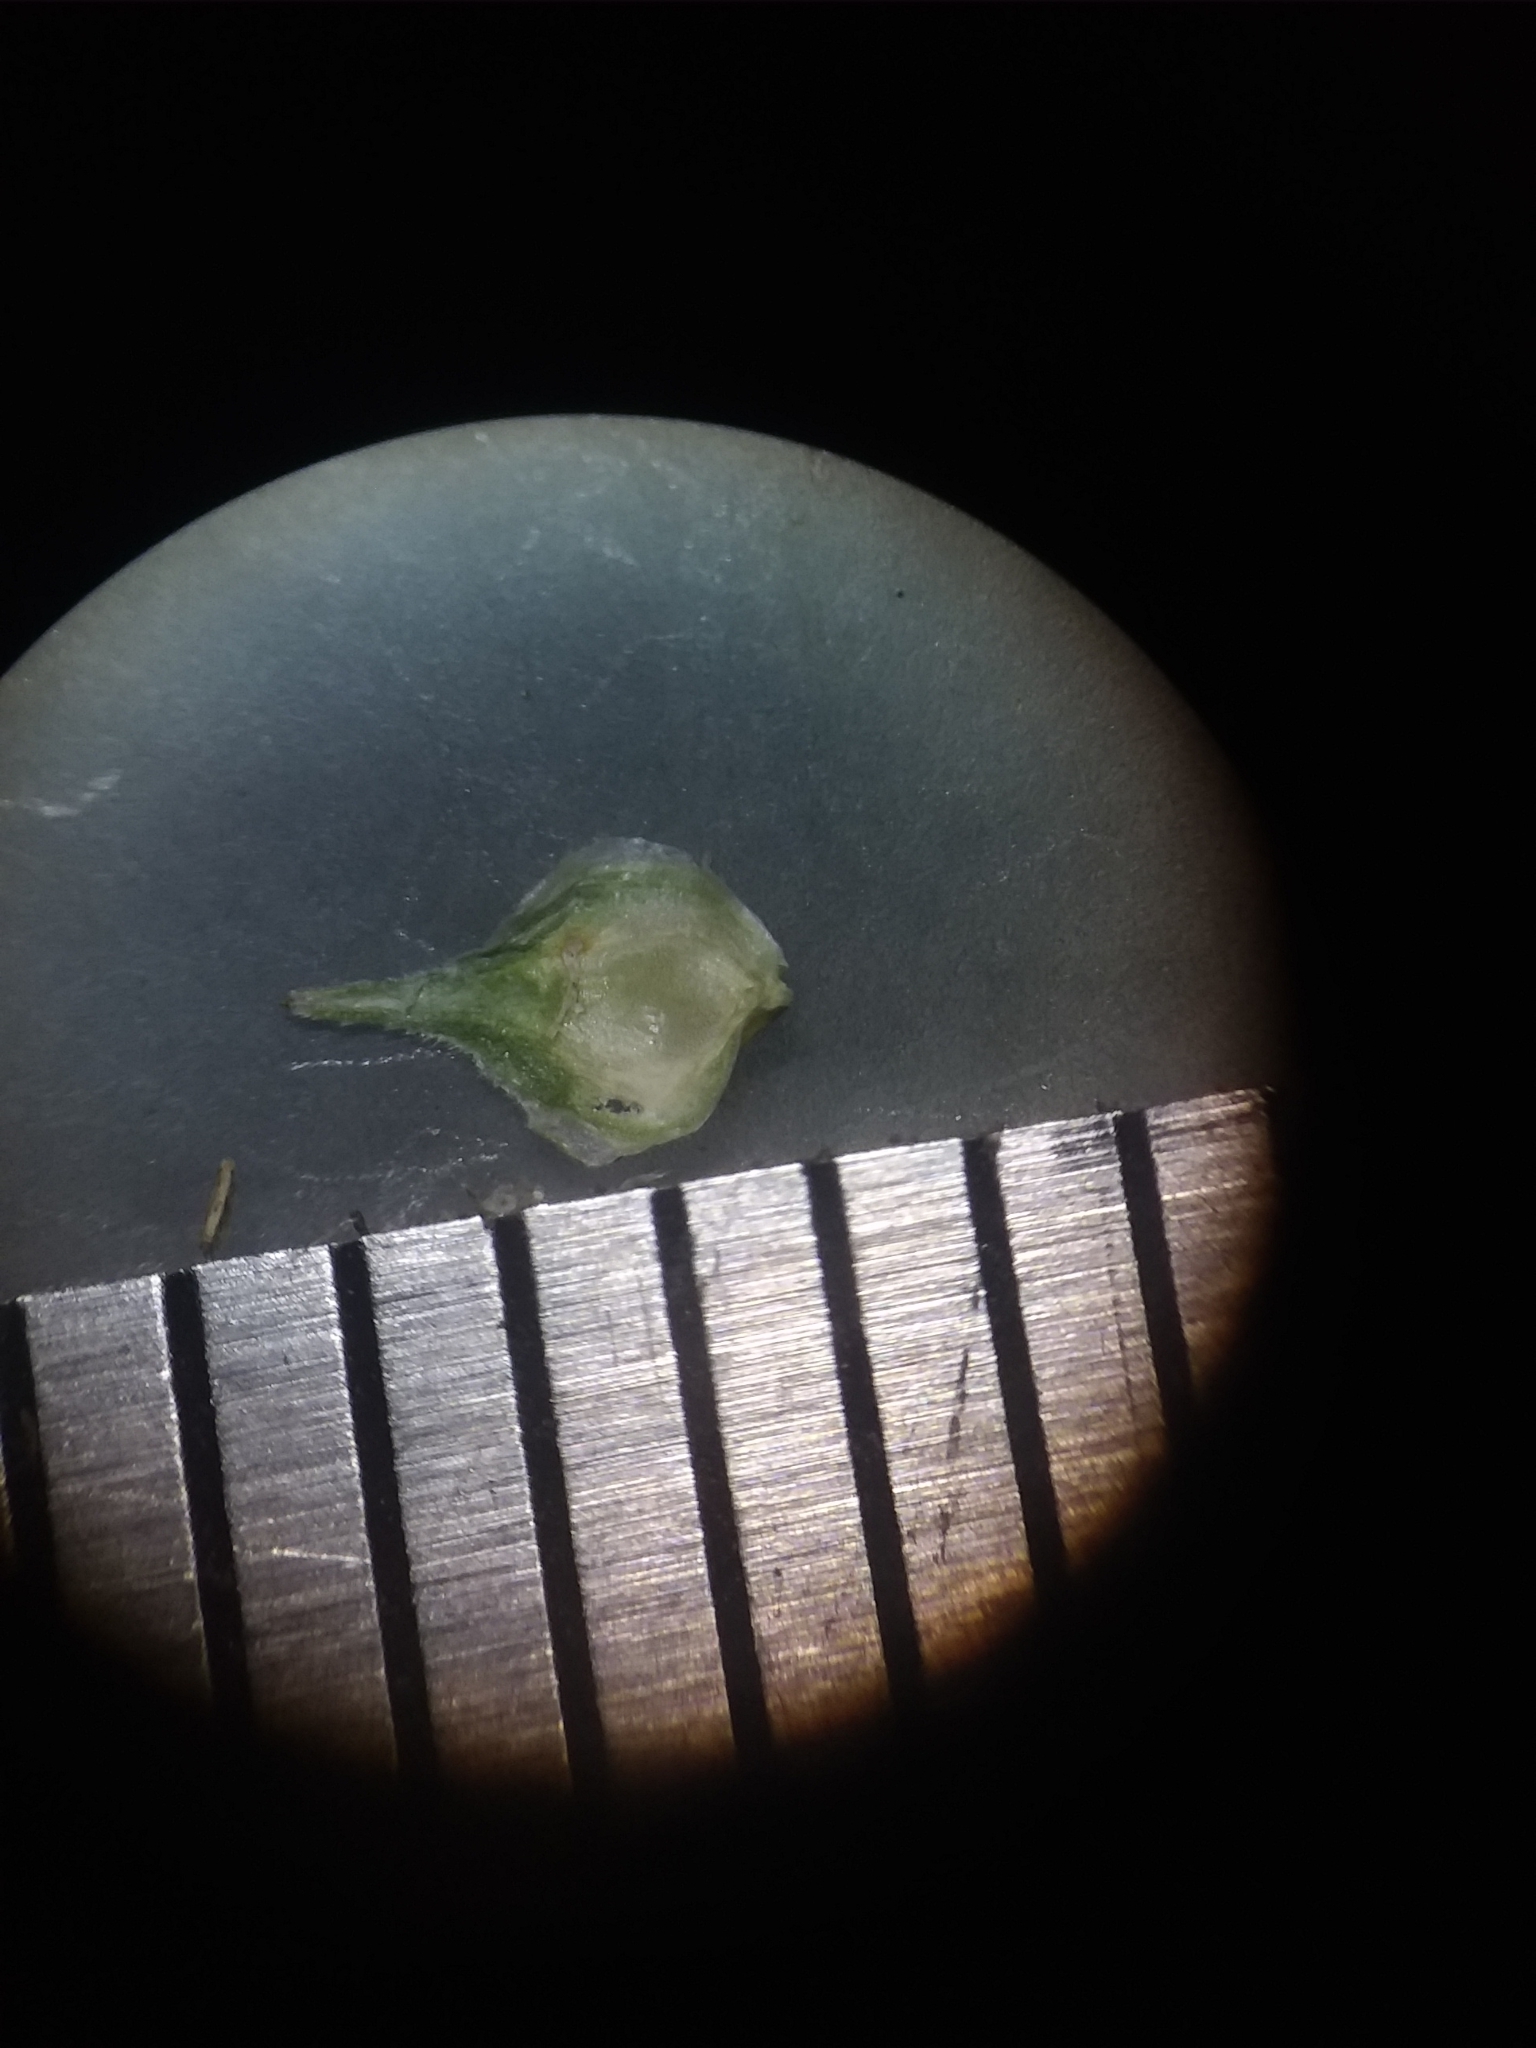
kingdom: Plantae
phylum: Tracheophyta
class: Liliopsida
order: Poales
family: Cyperaceae
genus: Carex
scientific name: Carex festucacea
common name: Fescue oval sedge
